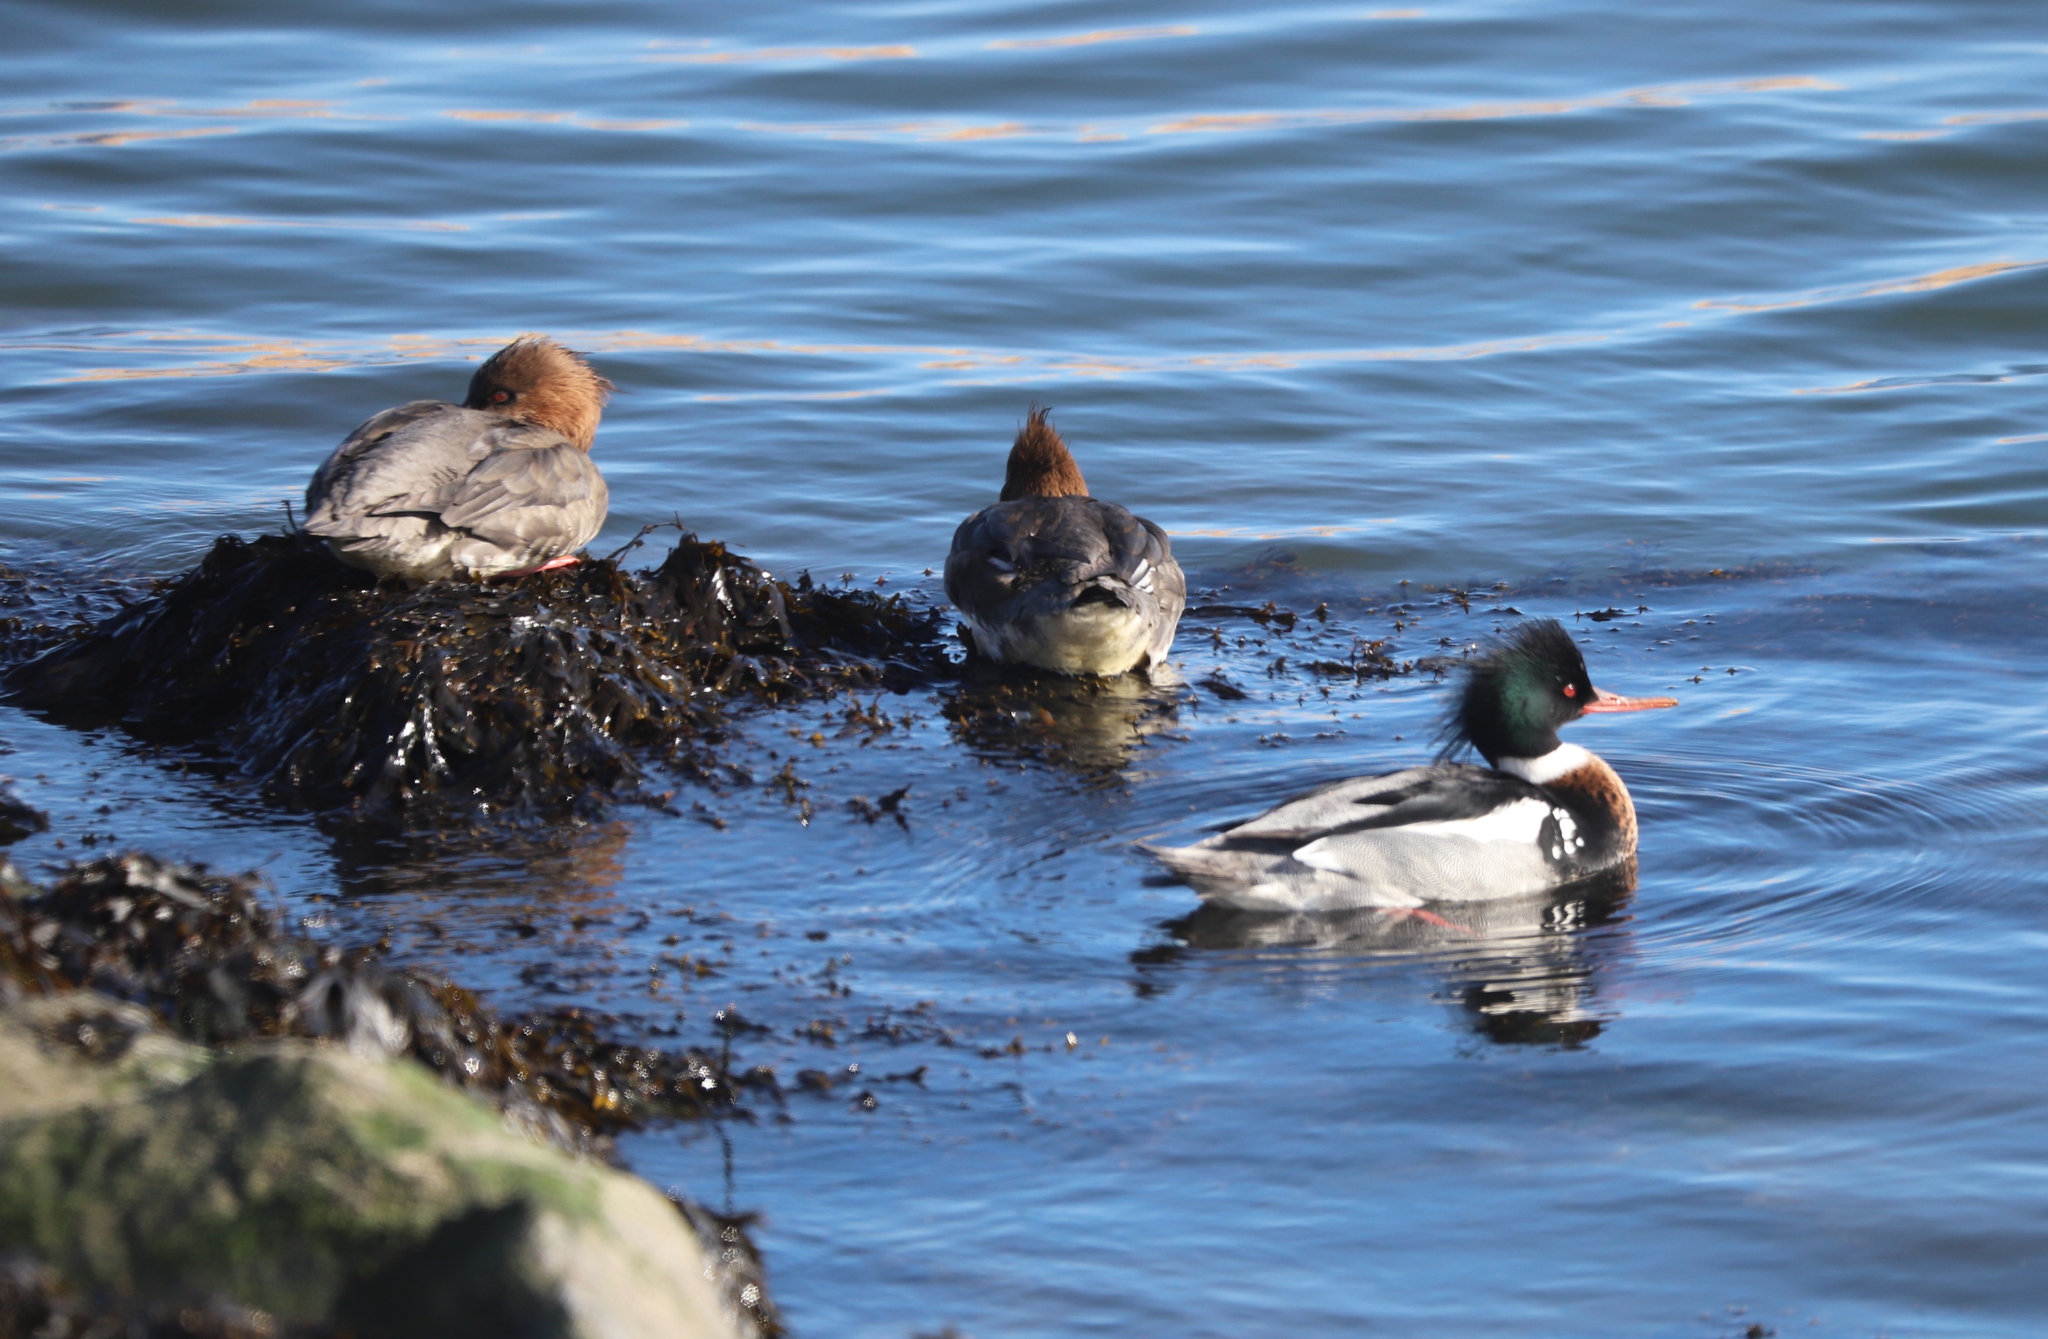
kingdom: Animalia
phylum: Chordata
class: Aves
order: Anseriformes
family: Anatidae
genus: Mergus
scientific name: Mergus serrator
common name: Red-breasted merganser
